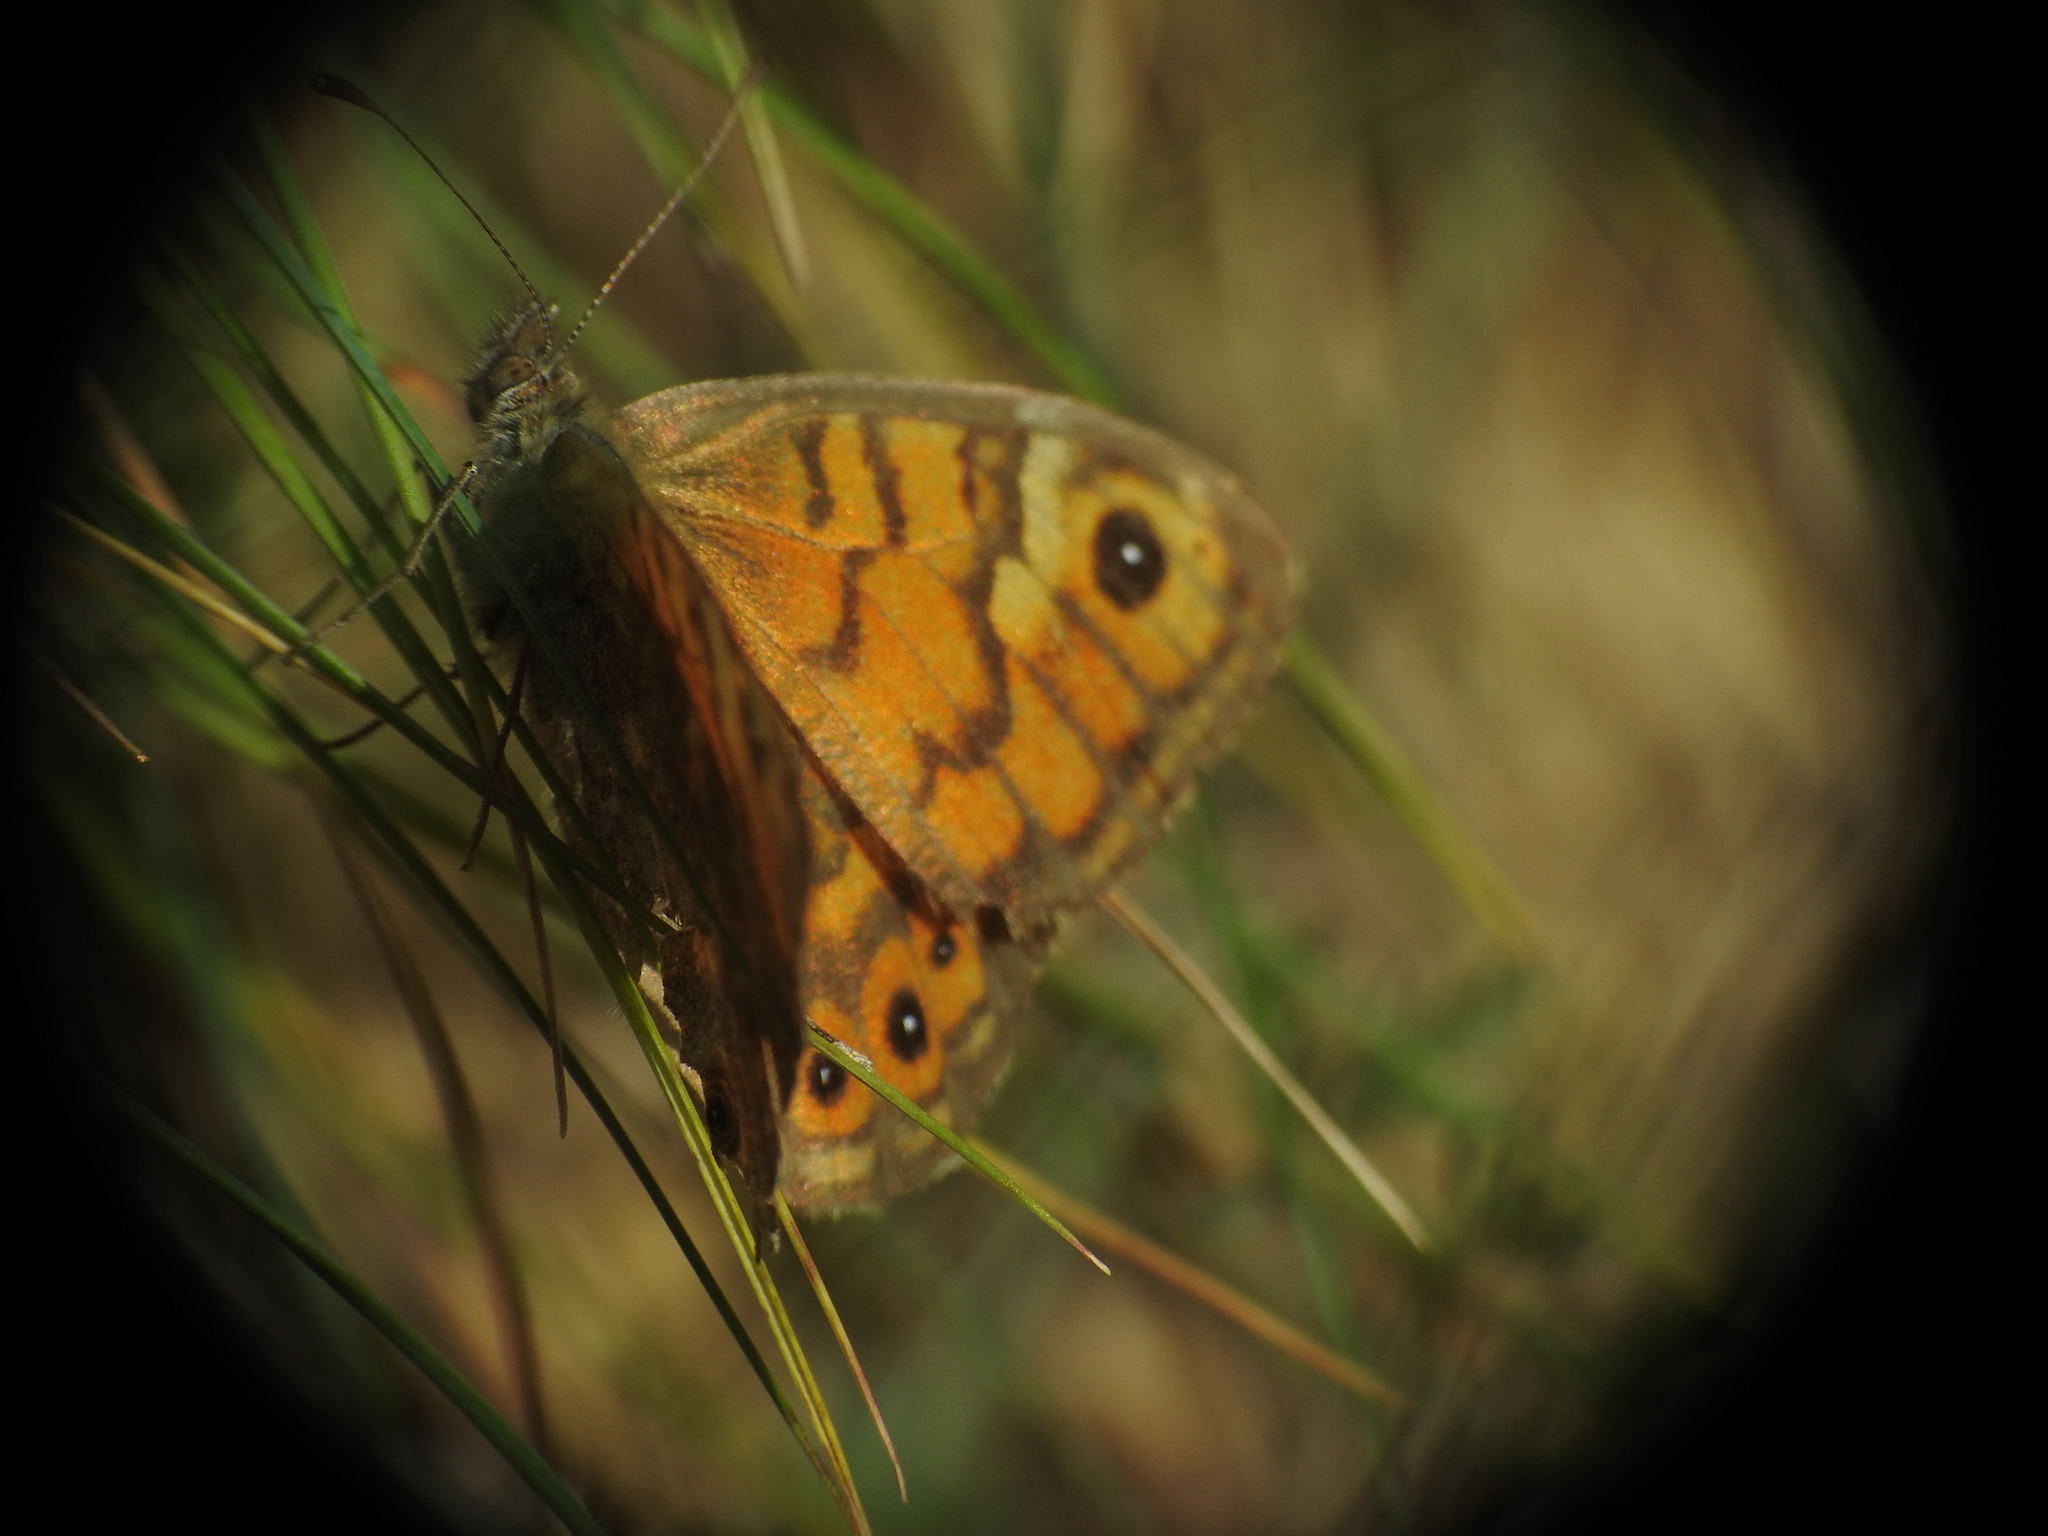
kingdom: Animalia
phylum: Arthropoda
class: Insecta
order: Lepidoptera
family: Nymphalidae
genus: Pararge
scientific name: Pararge Lasiommata megera
